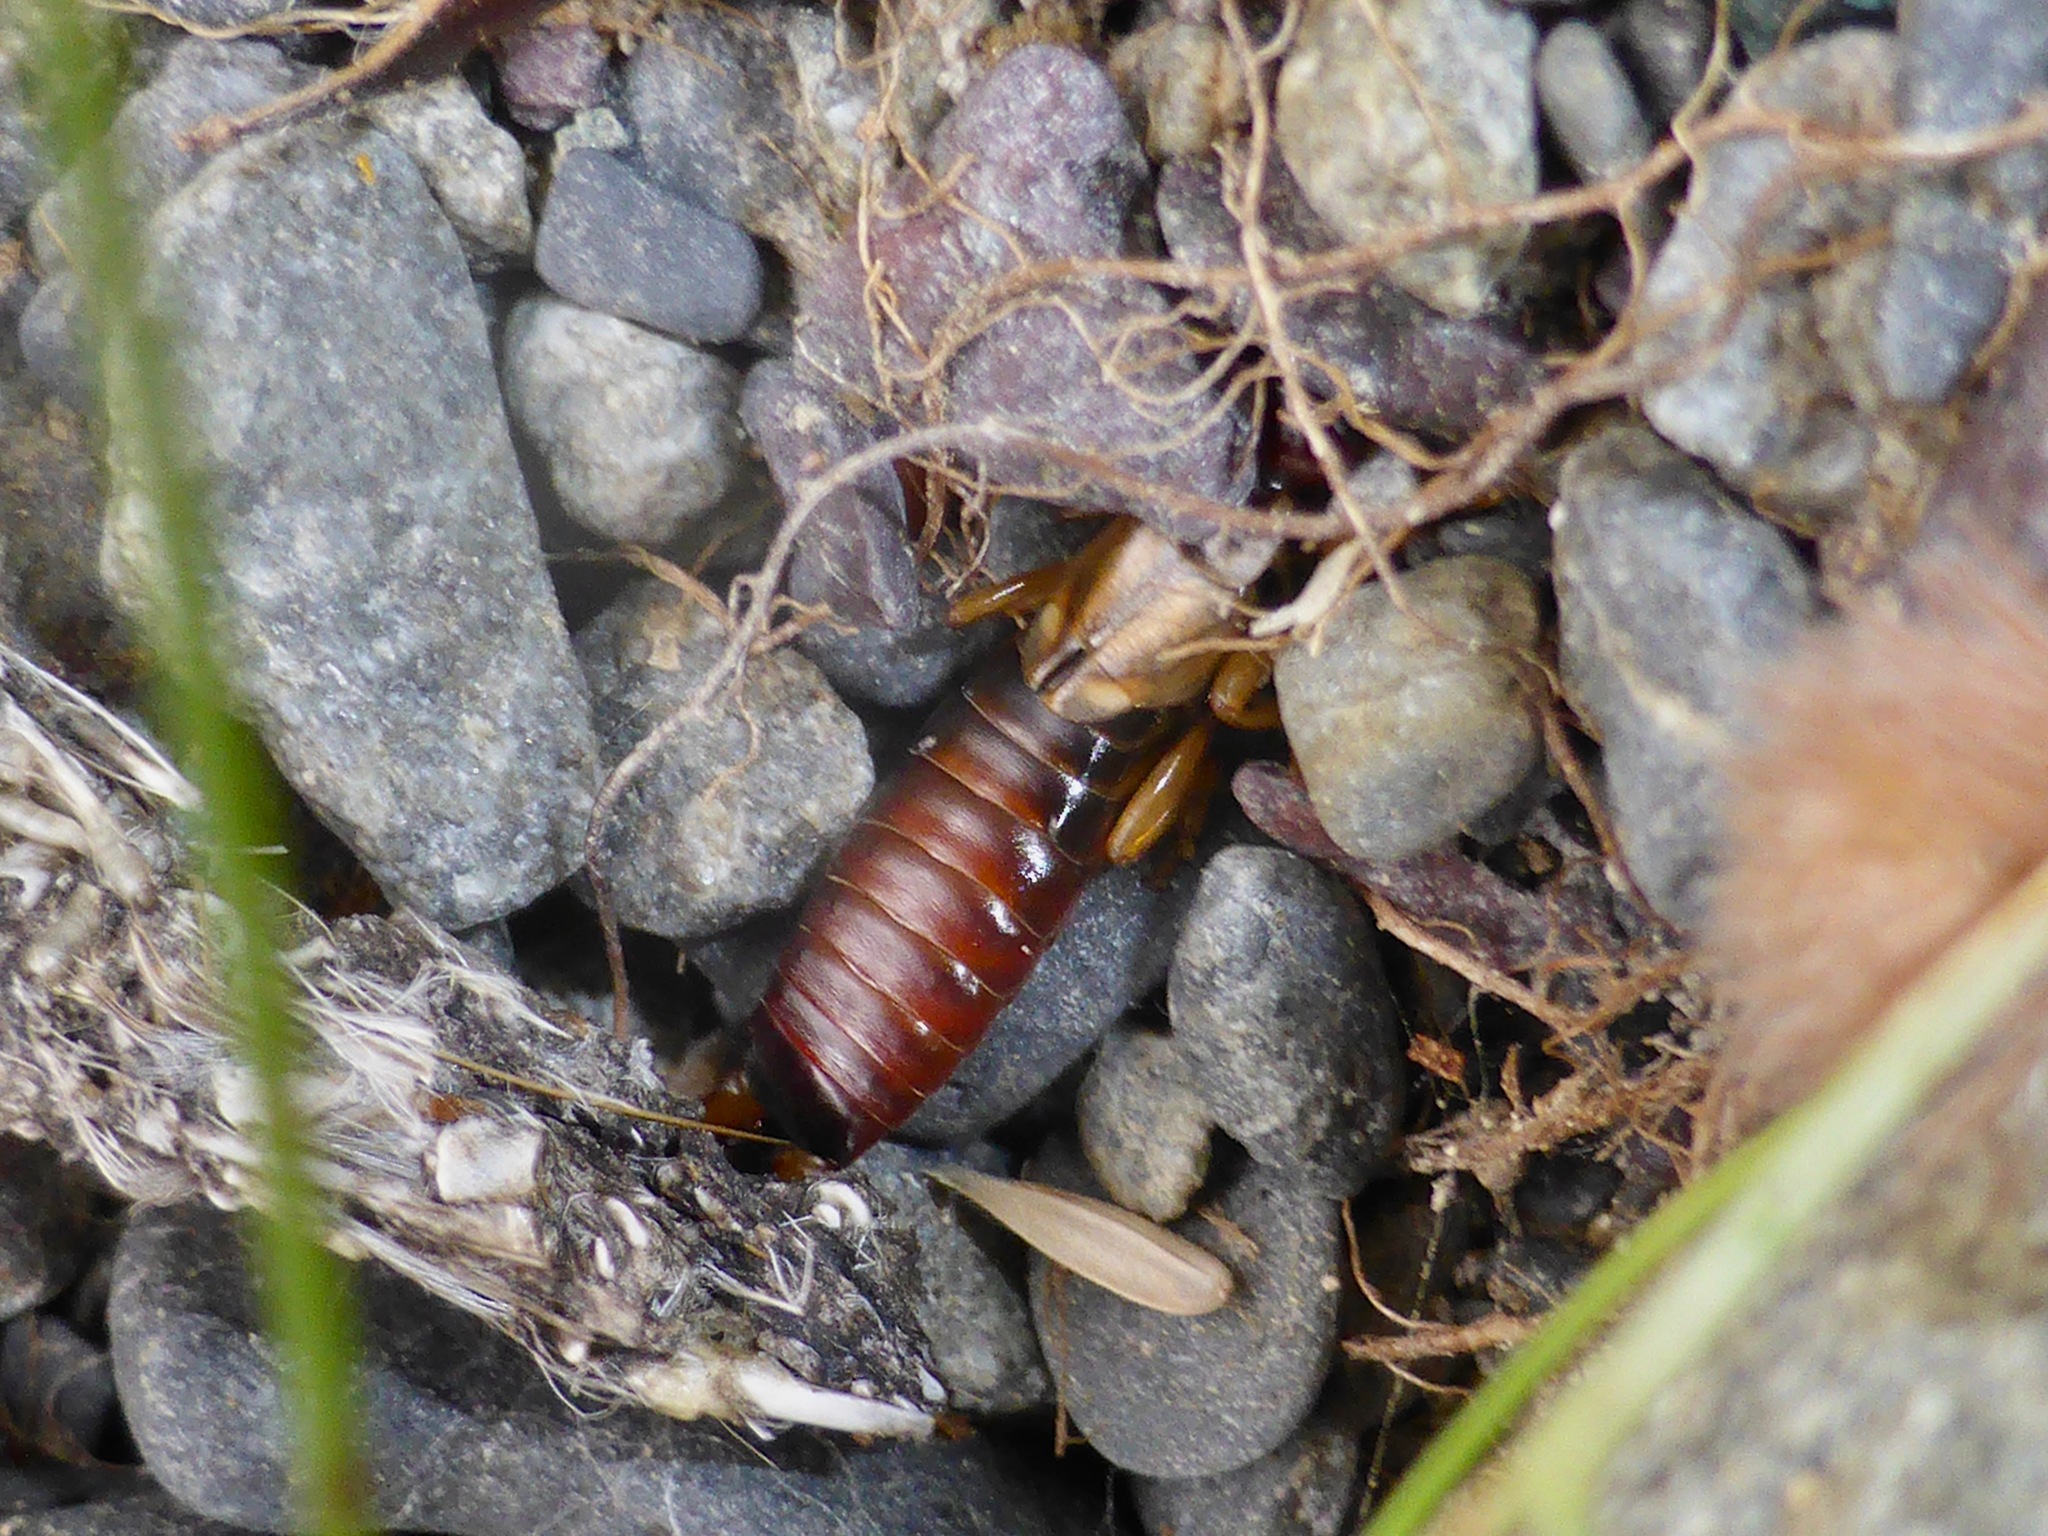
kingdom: Animalia
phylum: Arthropoda
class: Insecta
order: Dermaptera
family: Forficulidae
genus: Forficula
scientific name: Forficula
